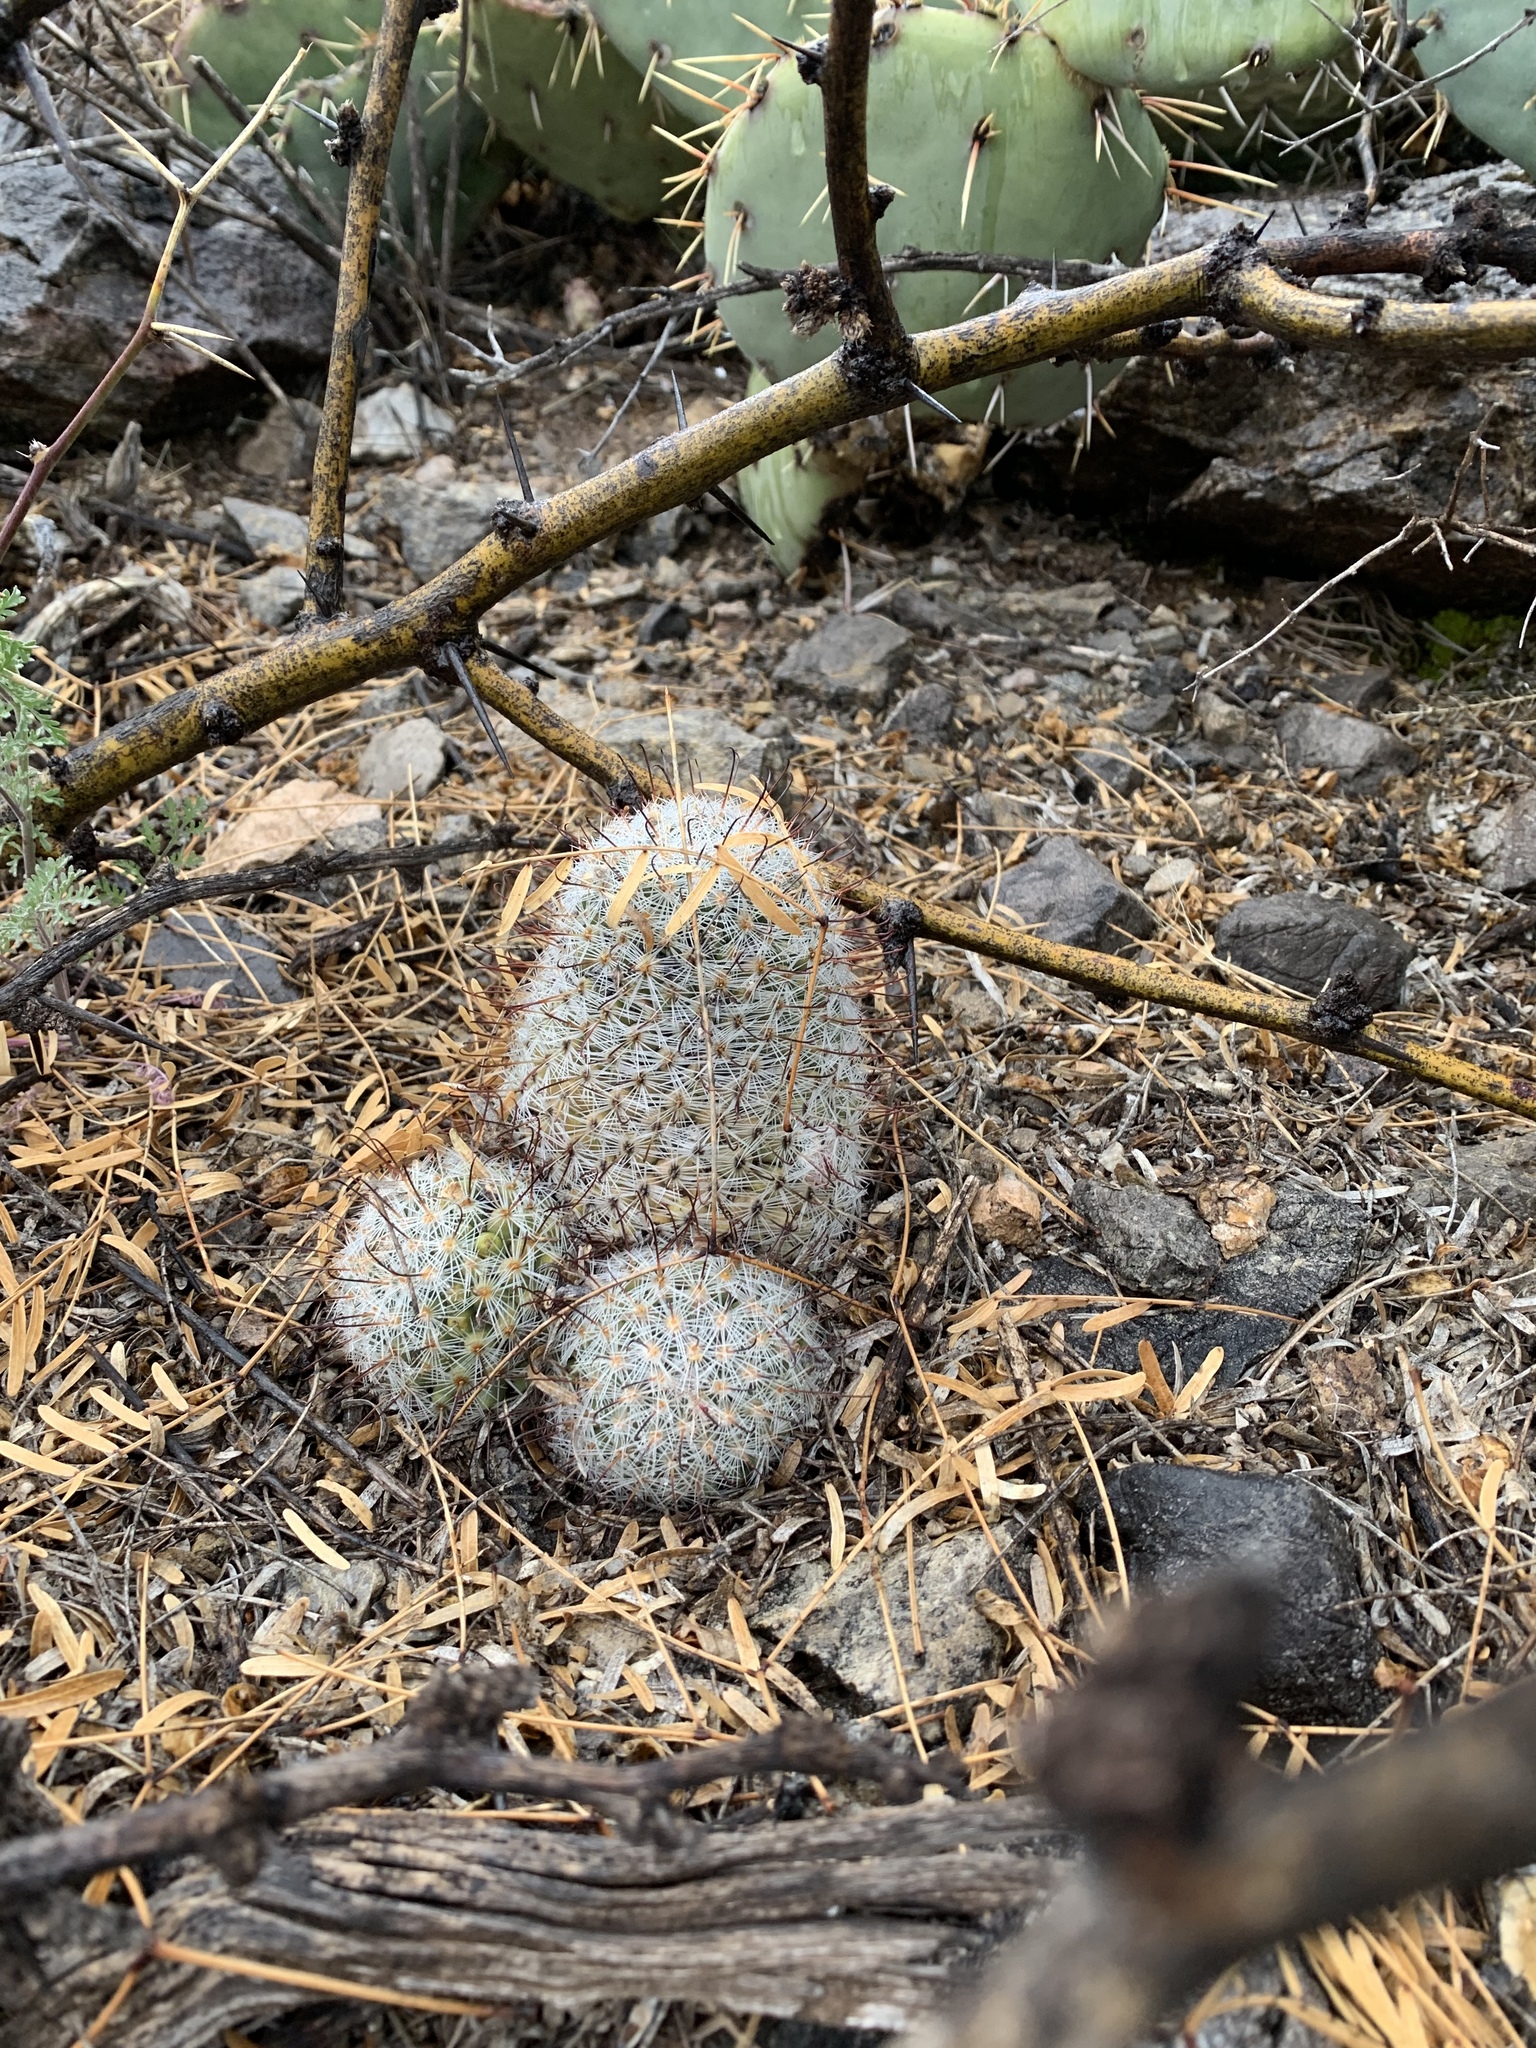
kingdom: Plantae
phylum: Tracheophyta
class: Magnoliopsida
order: Caryophyllales
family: Cactaceae
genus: Cochemiea
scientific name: Cochemiea grahamii
